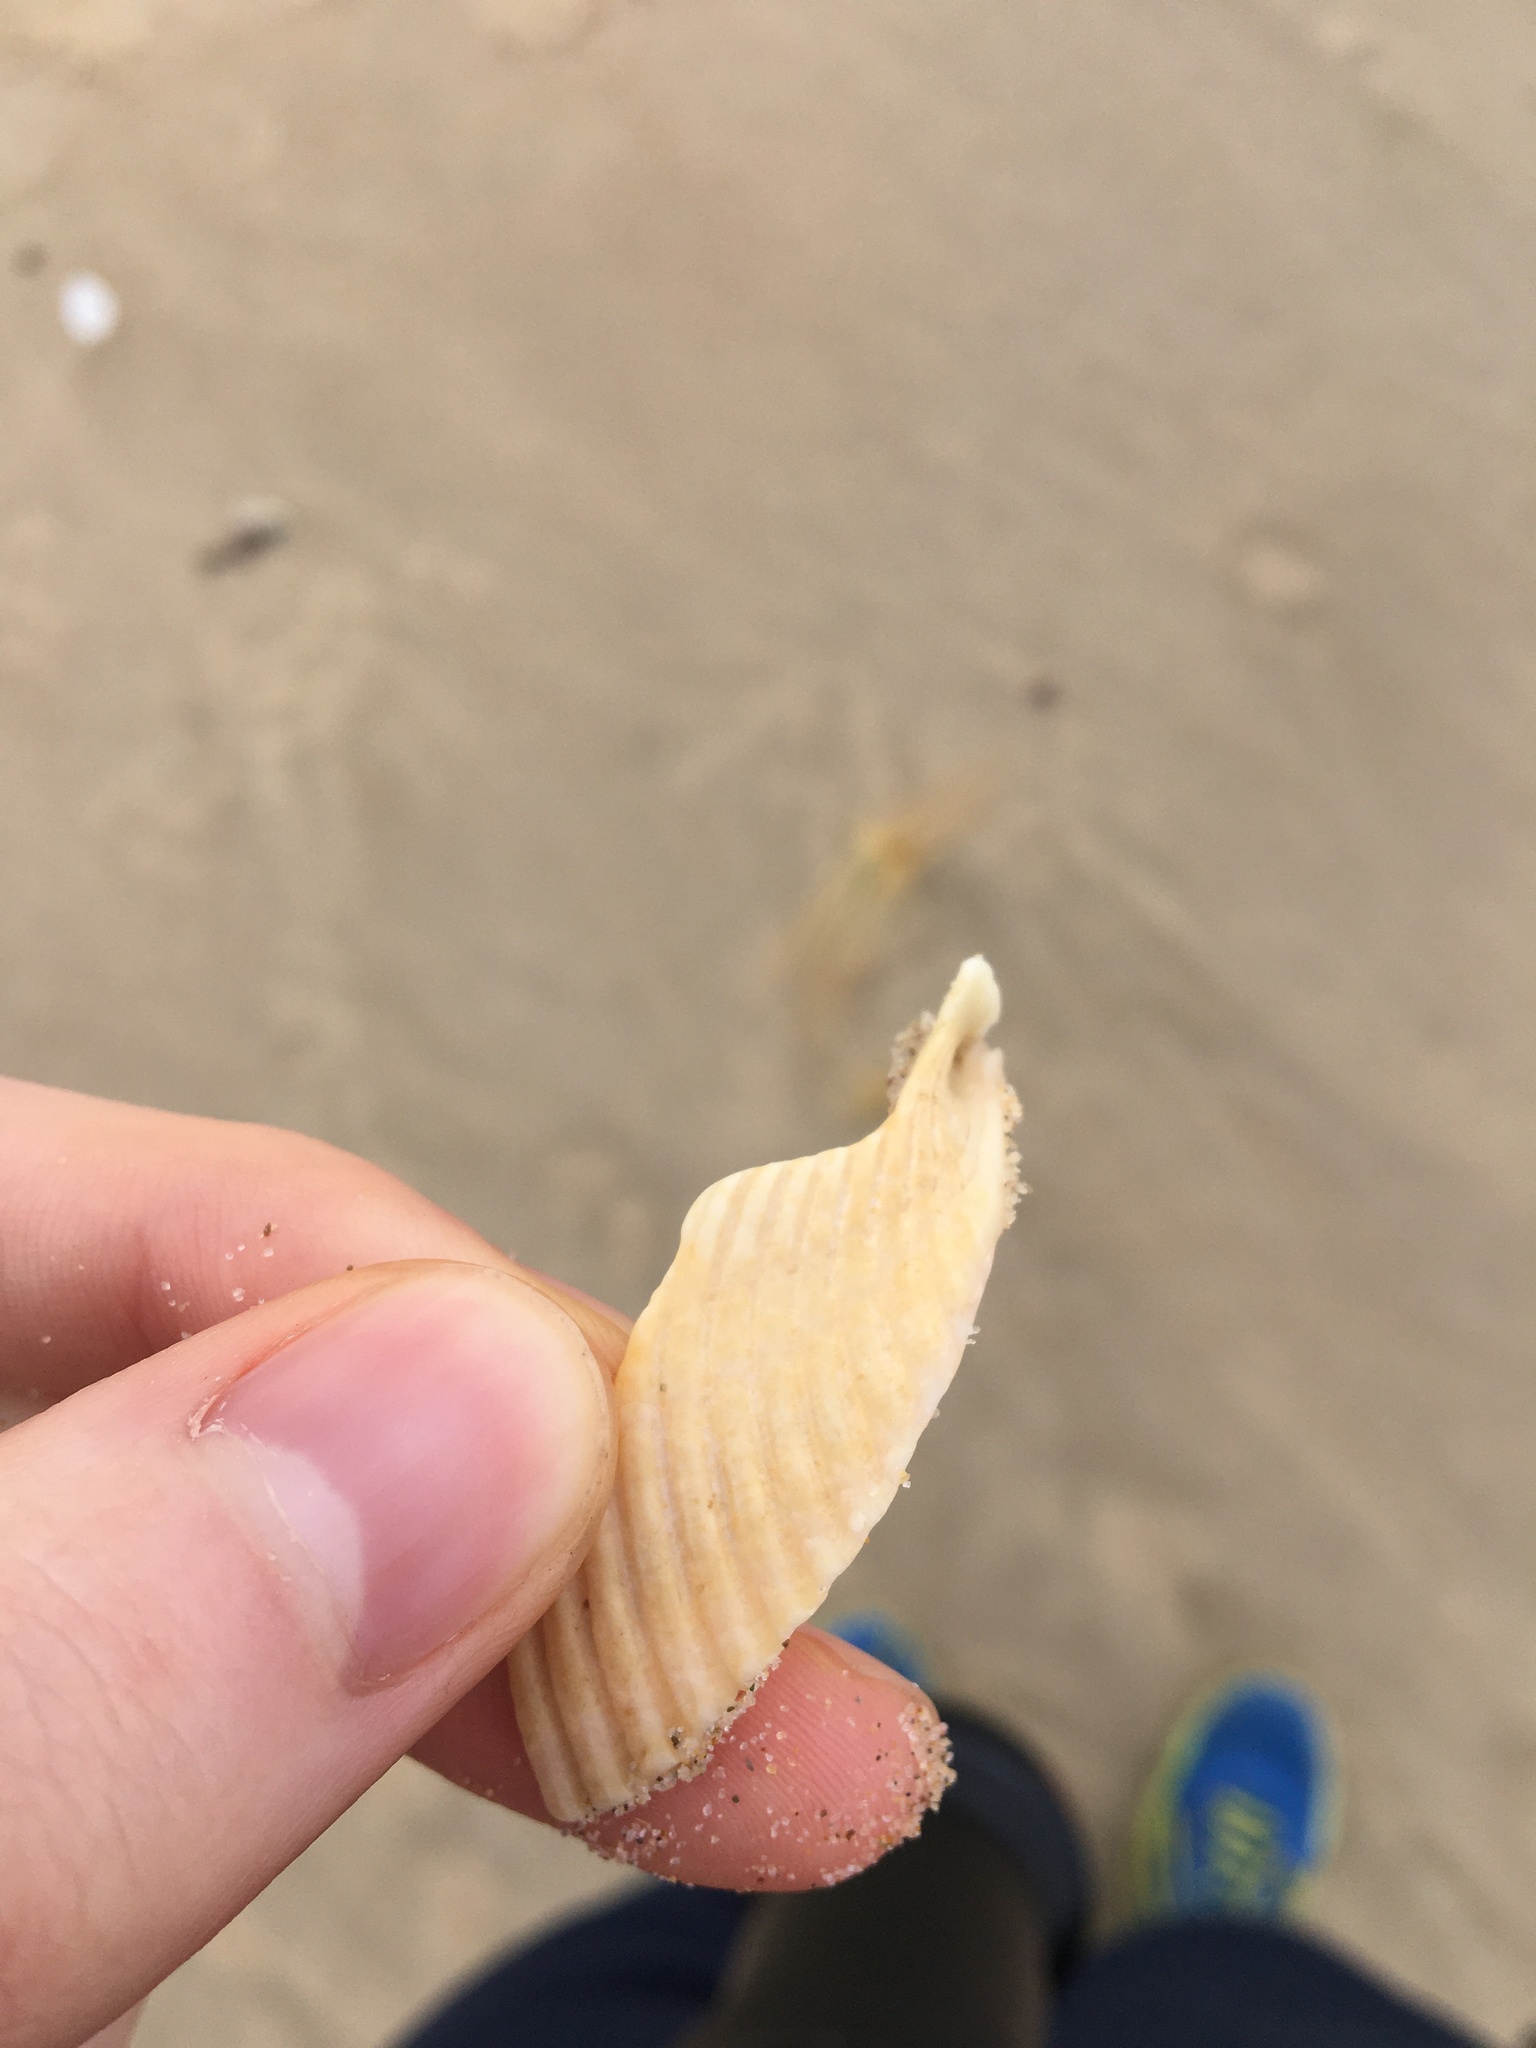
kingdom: Animalia
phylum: Mollusca
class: Bivalvia
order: Cardiida
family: Cardiidae
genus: Vepricardium
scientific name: Vepricardium multispinosum
